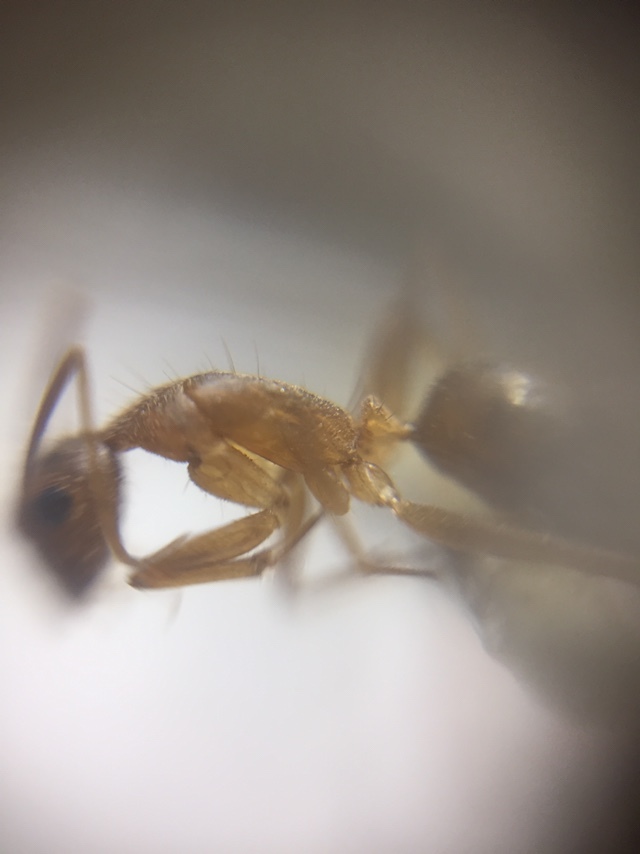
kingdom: Animalia
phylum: Arthropoda
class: Insecta
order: Hymenoptera
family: Formicidae
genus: Camponotus
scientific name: Camponotus irritans
